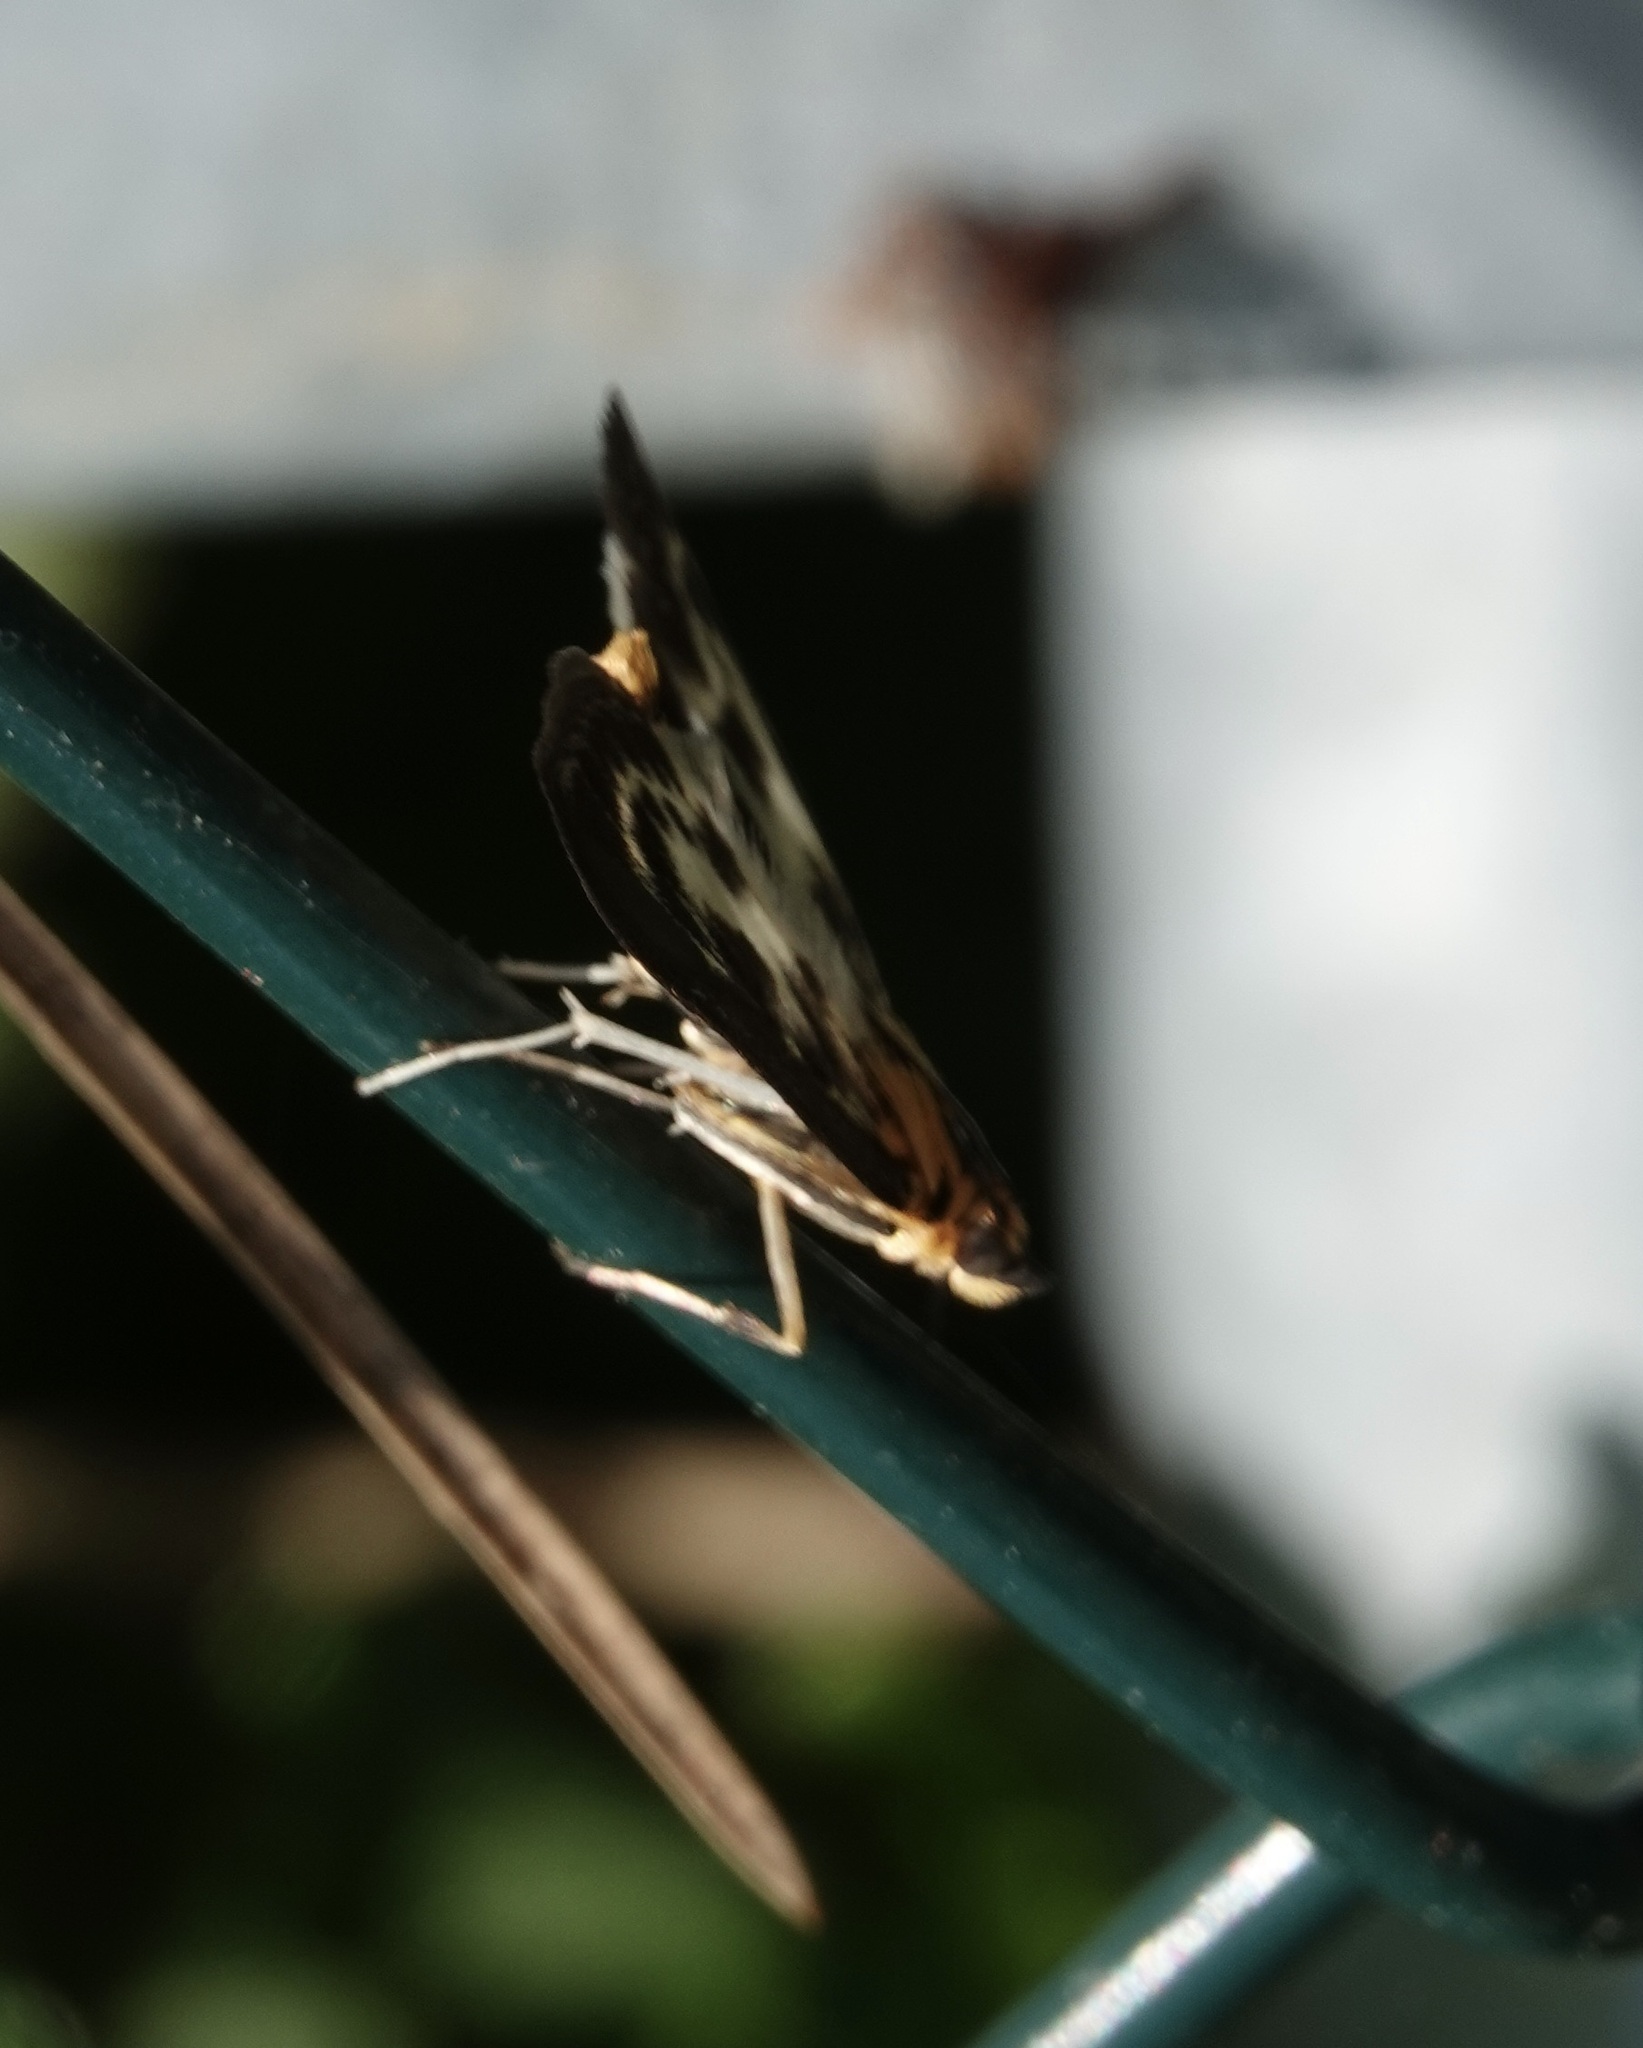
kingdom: Animalia
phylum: Arthropoda
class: Insecta
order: Lepidoptera
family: Crambidae
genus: Anania
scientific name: Anania hortulata
